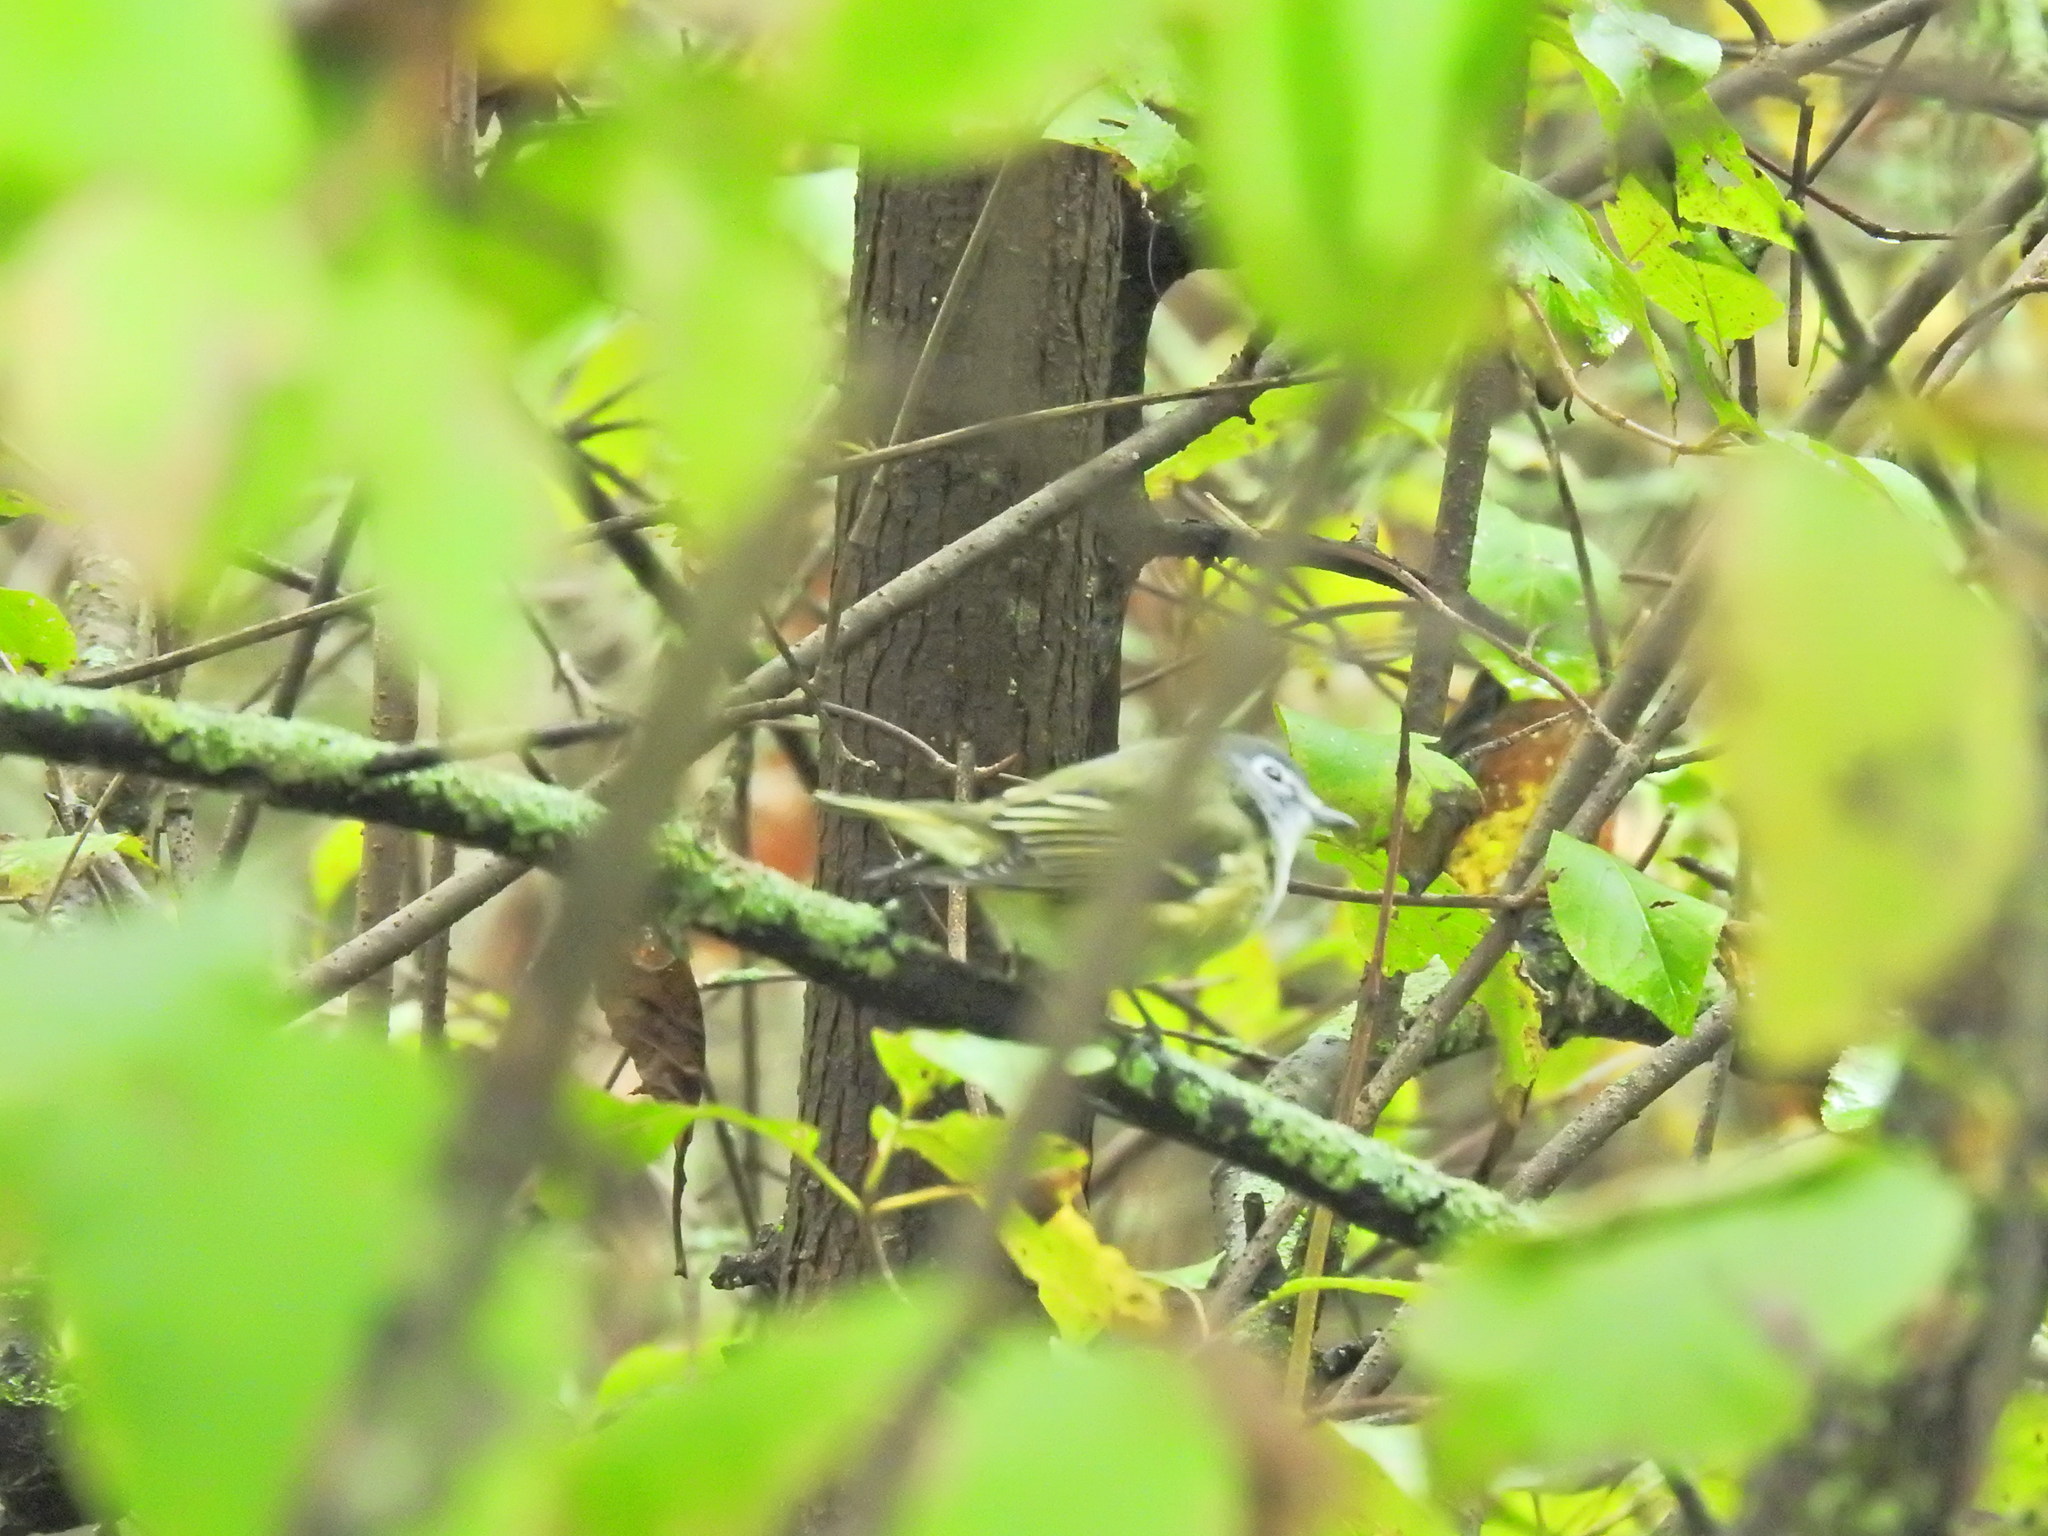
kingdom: Animalia
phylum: Chordata
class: Aves
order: Passeriformes
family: Vireonidae
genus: Vireo
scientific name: Vireo solitarius
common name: Blue-headed vireo
